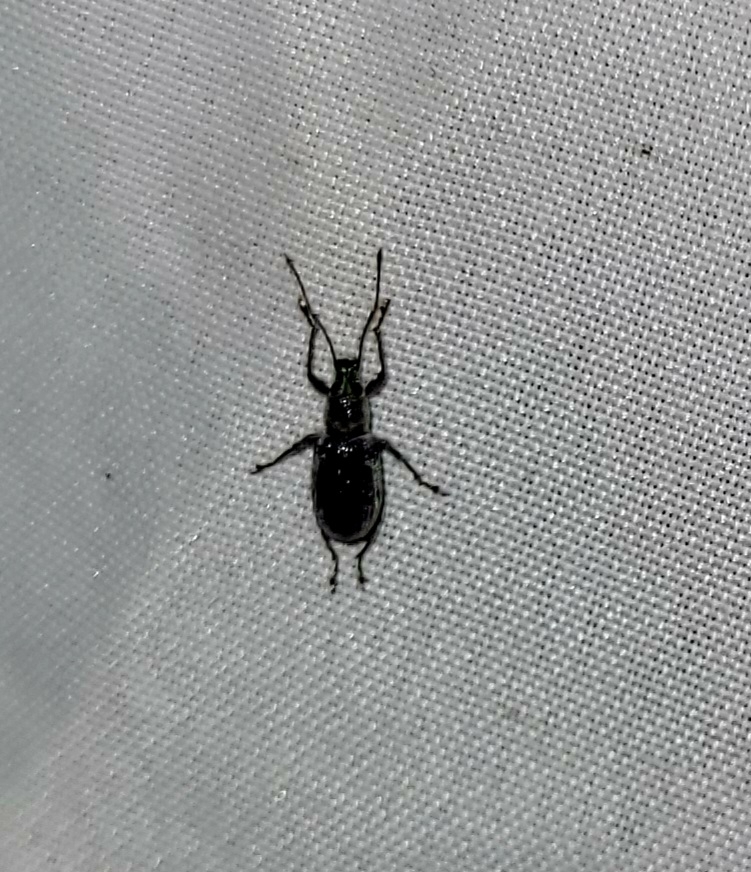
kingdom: Animalia
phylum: Arthropoda
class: Insecta
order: Coleoptera
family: Curculionidae
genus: Cyrtepistomus
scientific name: Cyrtepistomus castaneus
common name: Weevil
